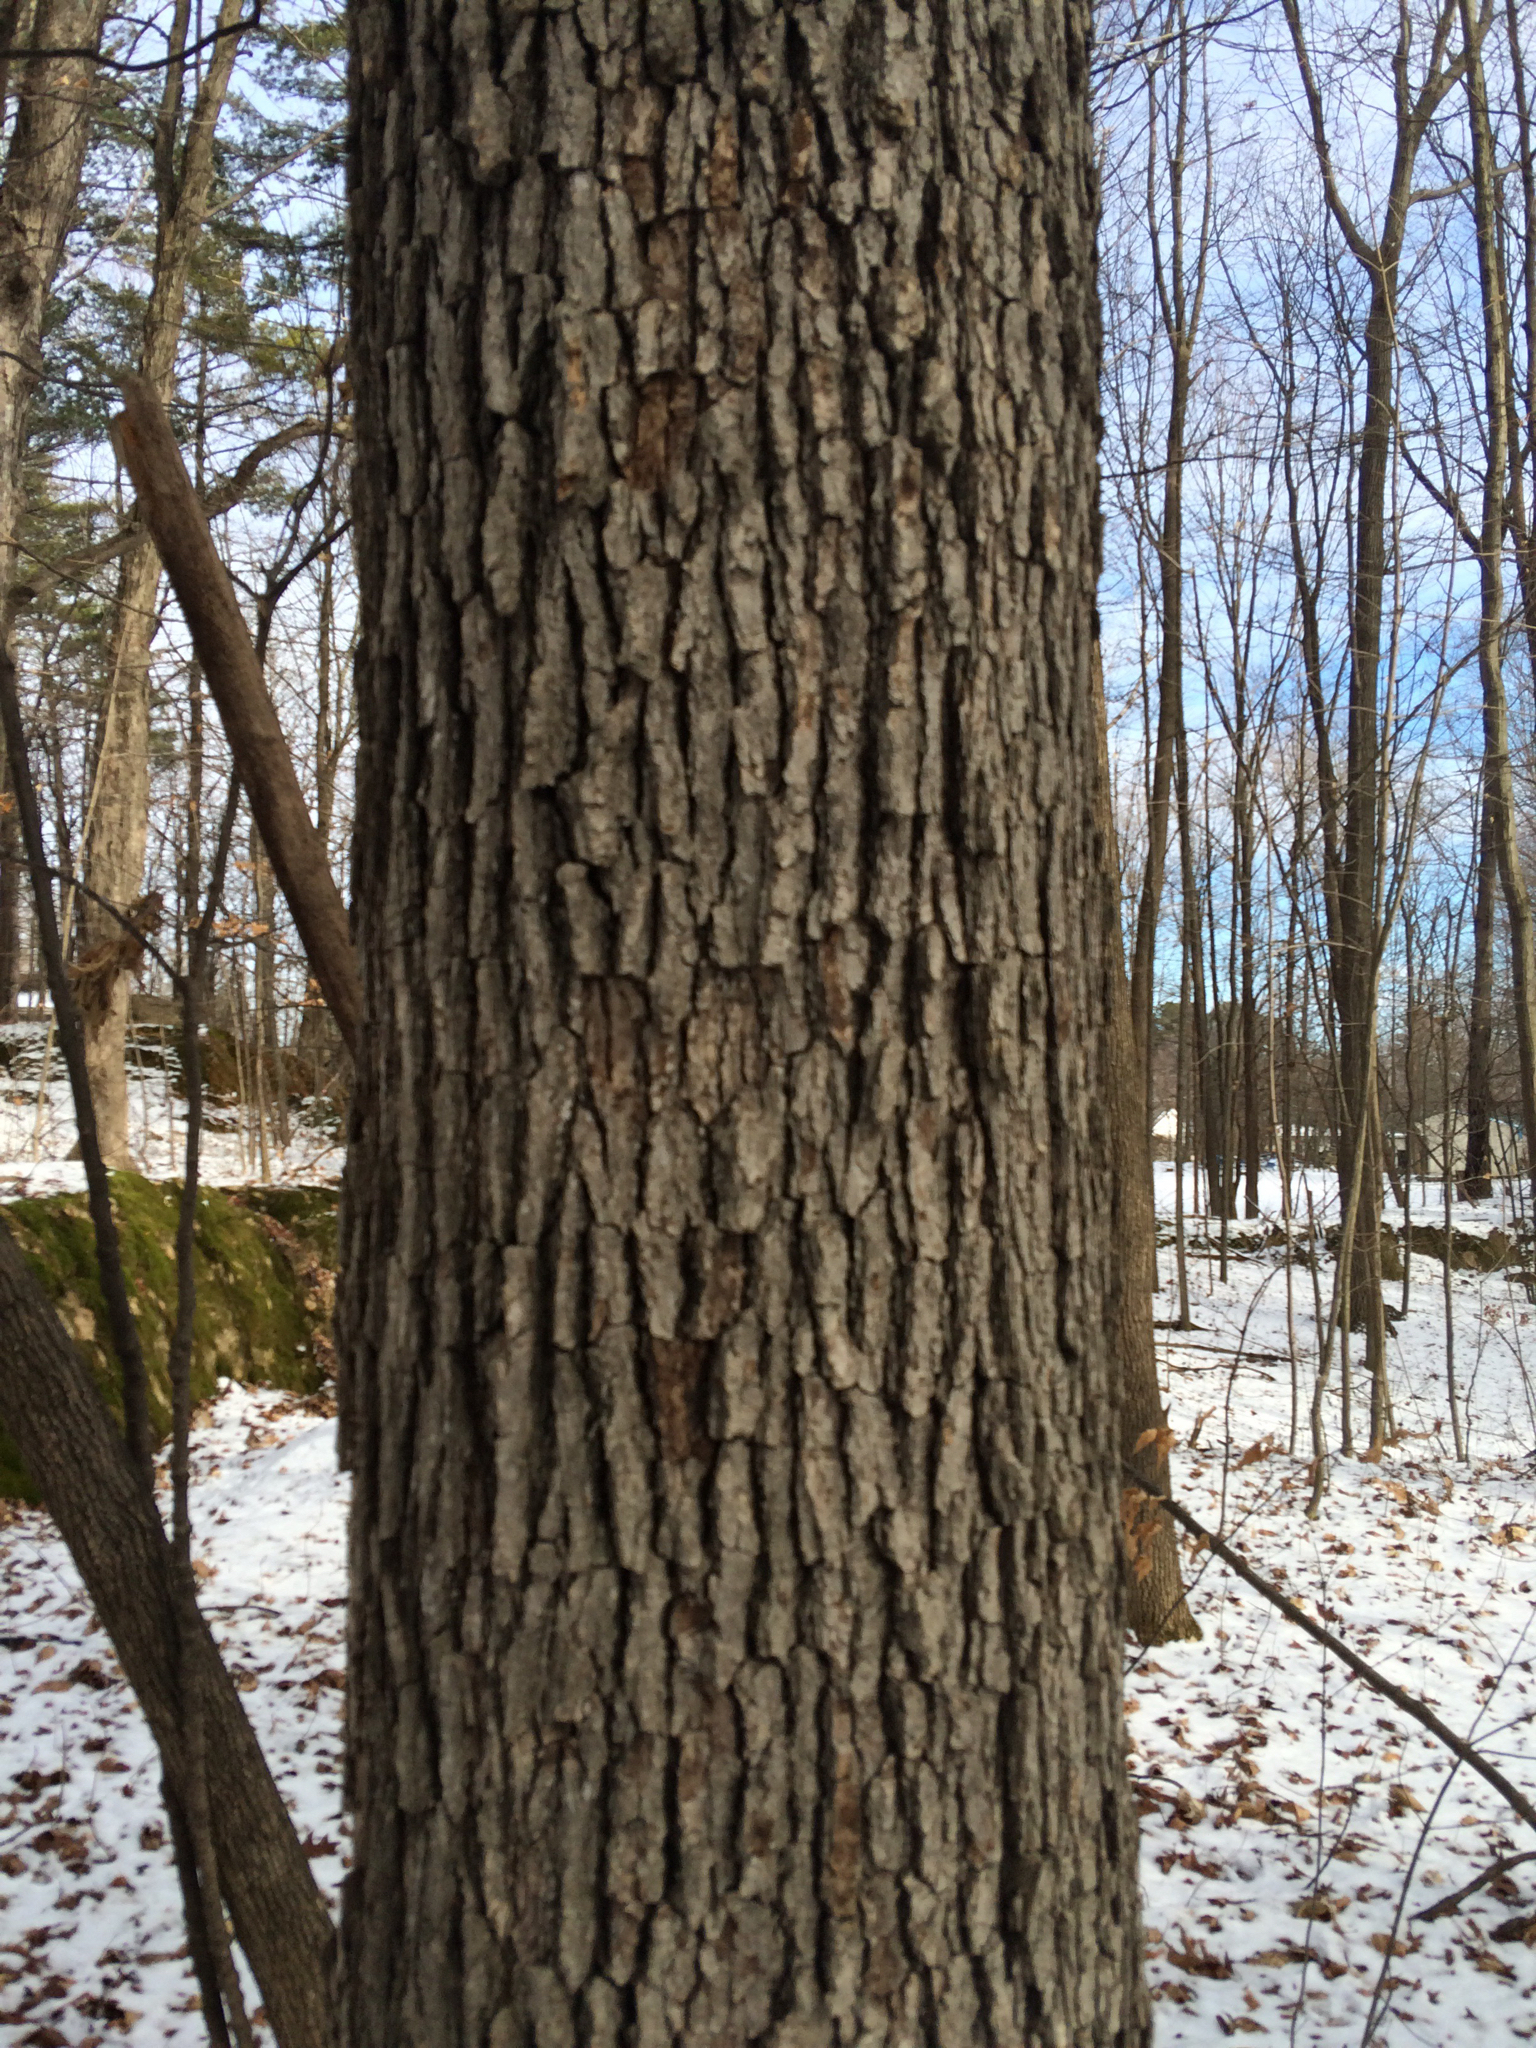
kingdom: Plantae
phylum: Tracheophyta
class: Magnoliopsida
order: Fagales
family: Fagaceae
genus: Quercus
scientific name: Quercus alba
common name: White oak
